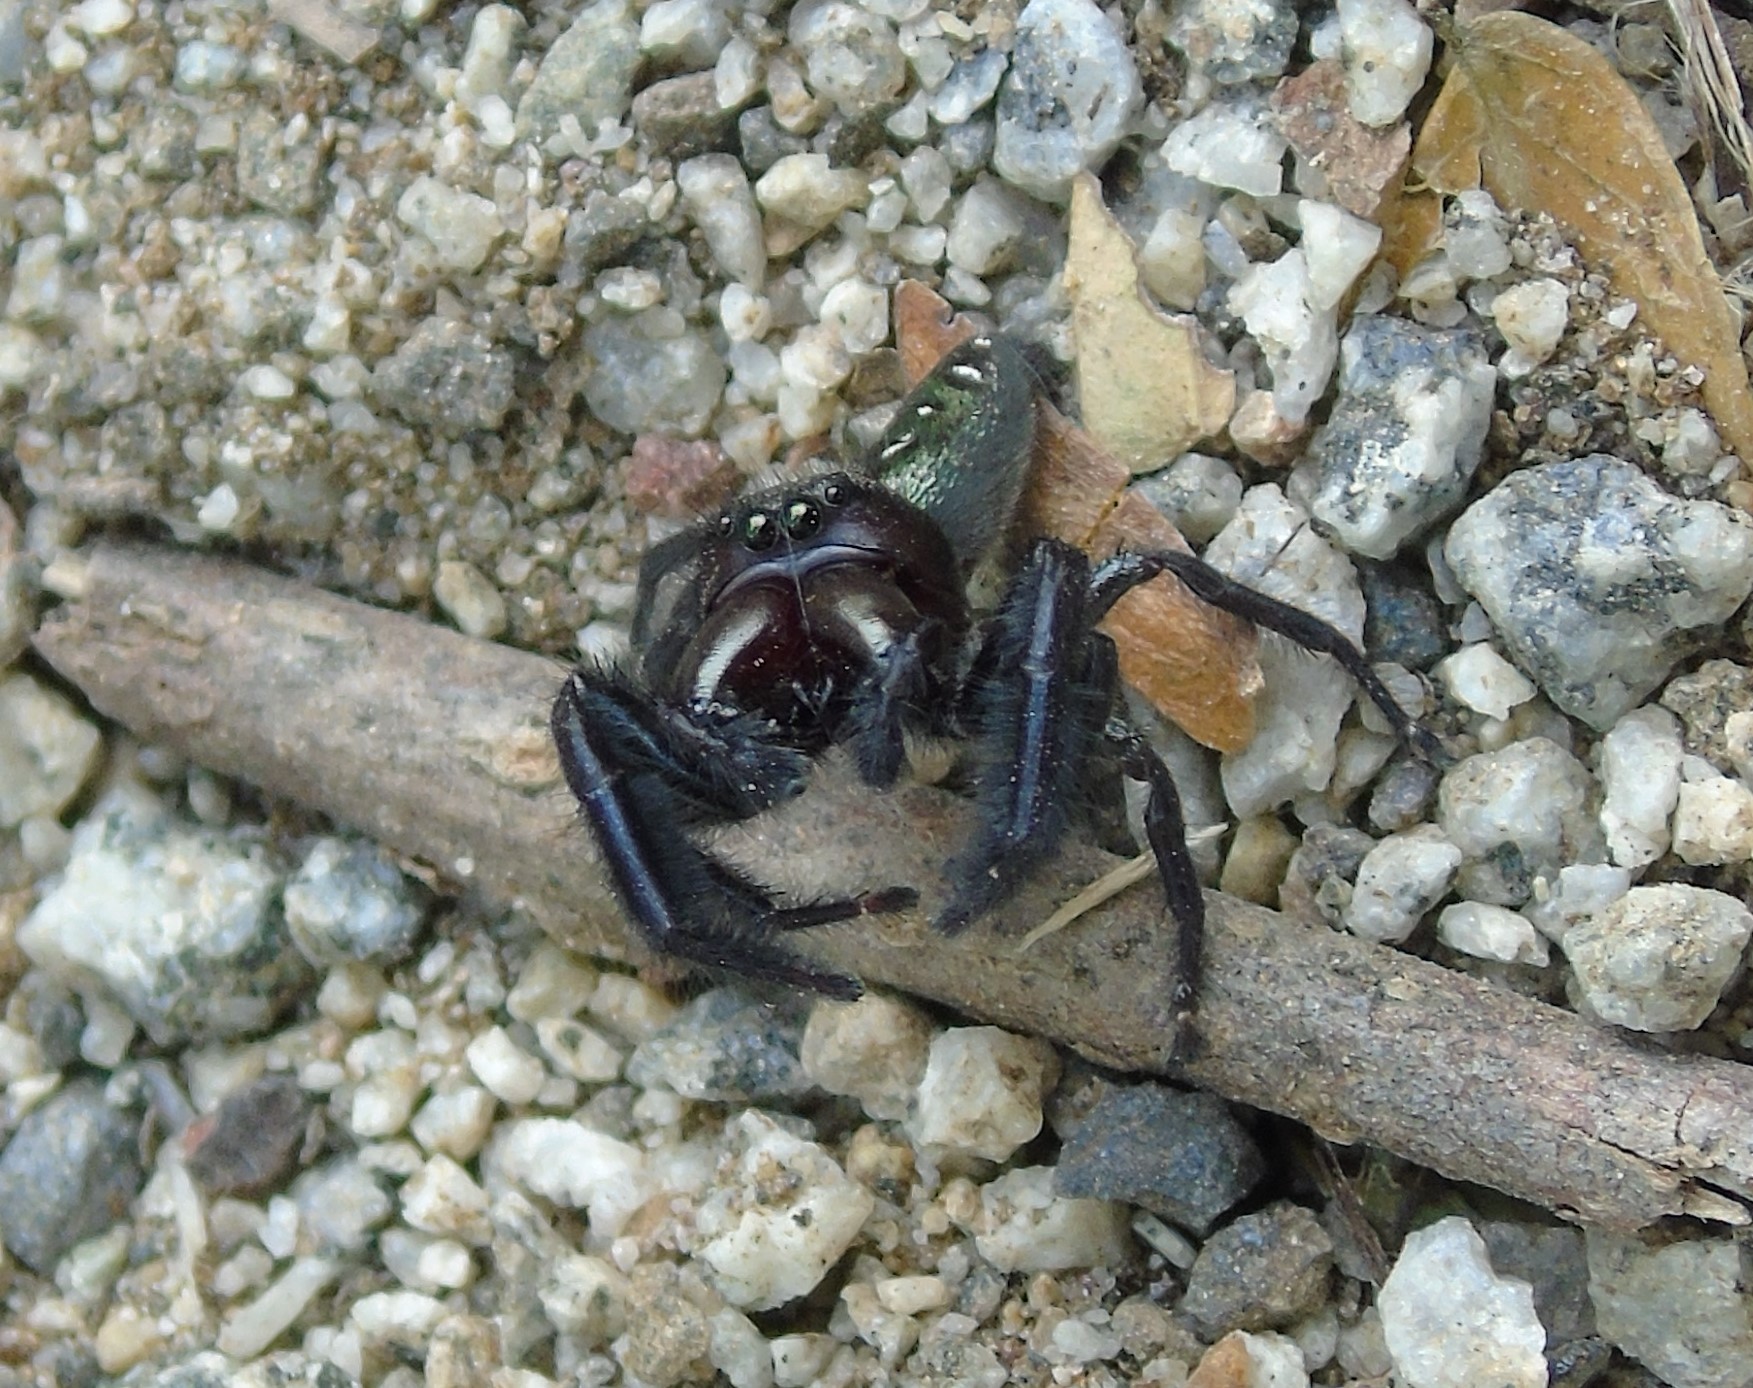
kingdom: Animalia
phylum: Arthropoda
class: Arachnida
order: Araneae
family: Salticidae
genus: Paraphidippus
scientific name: Paraphidippus fartilis
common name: Jumping spiders
